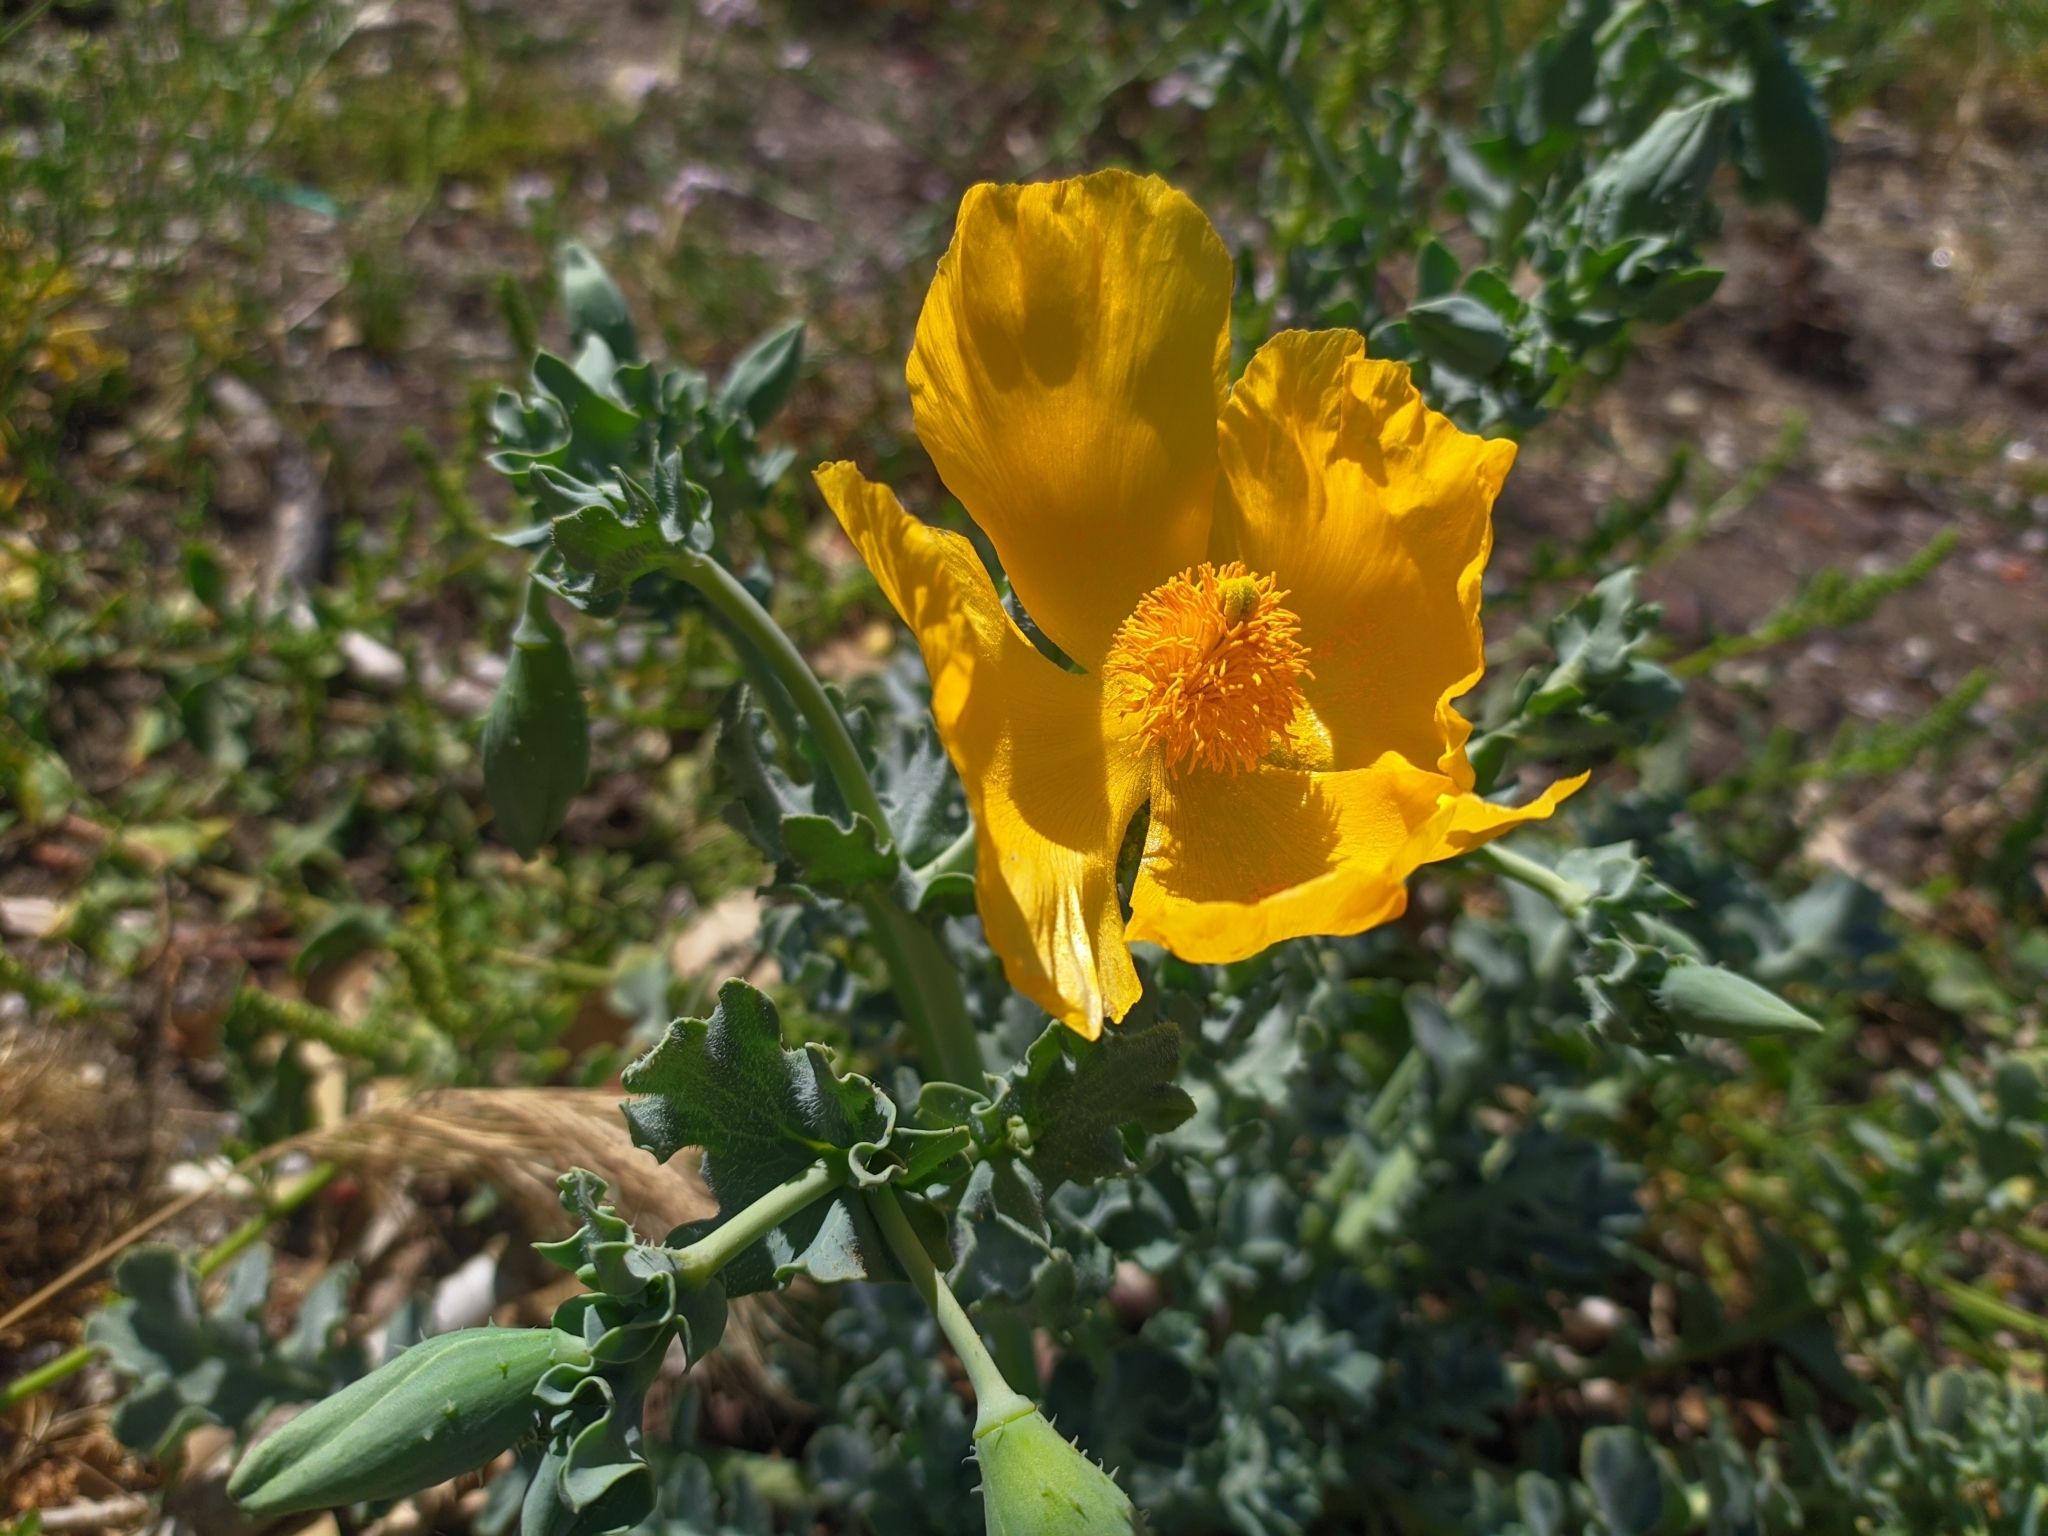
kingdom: Plantae
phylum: Tracheophyta
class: Magnoliopsida
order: Ranunculales
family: Papaveraceae
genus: Glaucium
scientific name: Glaucium flavum
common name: Yellow horned-poppy
